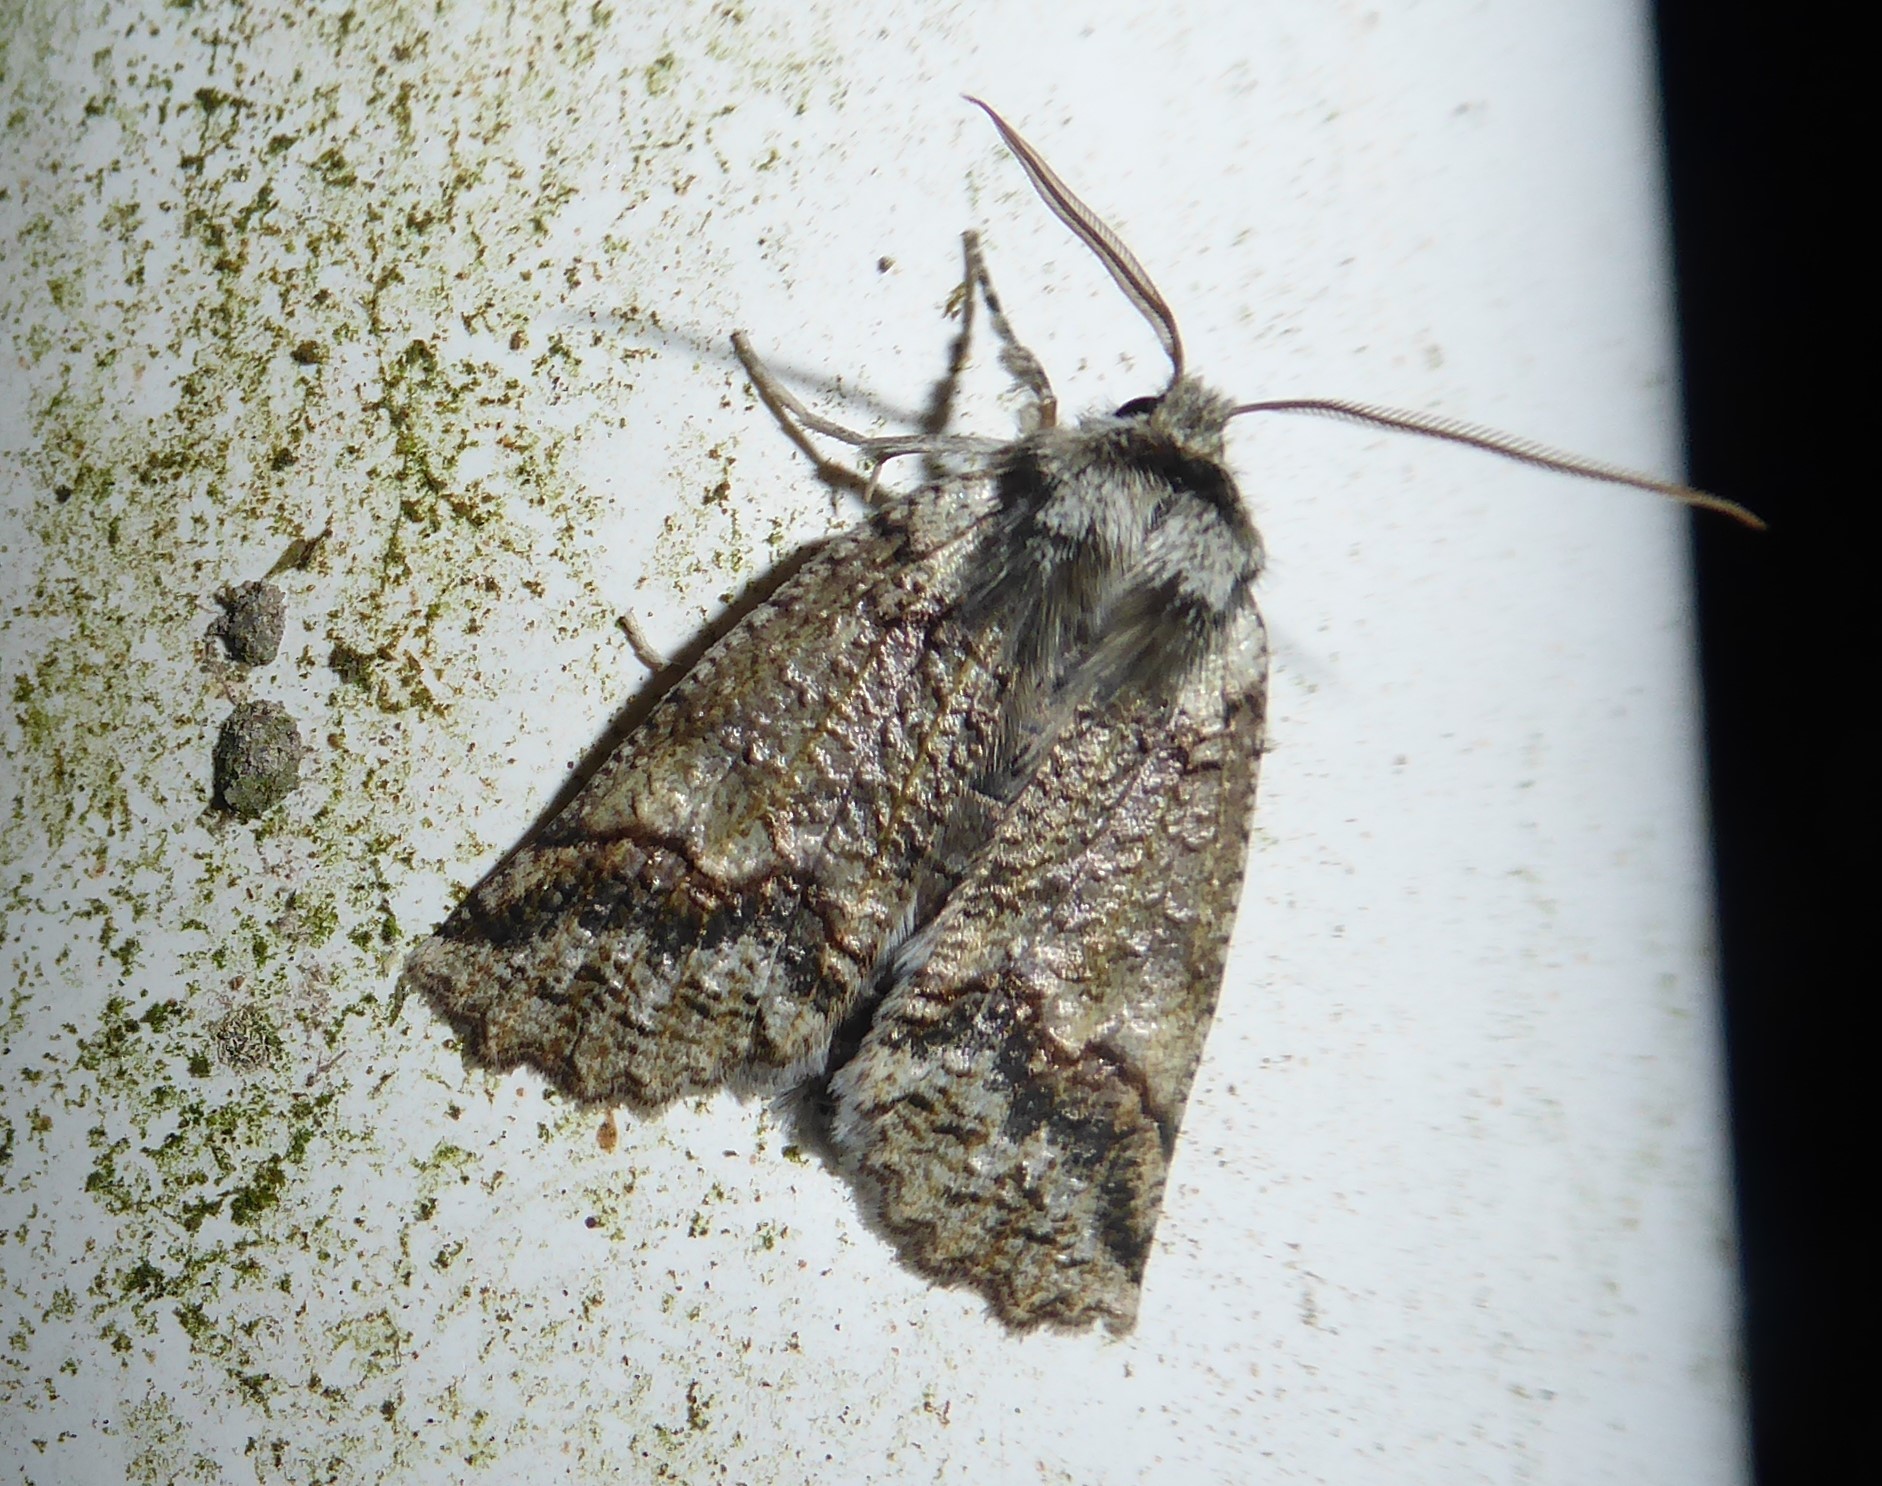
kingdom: Animalia
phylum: Arthropoda
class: Insecta
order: Lepidoptera
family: Geometridae
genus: Declana
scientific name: Declana floccosa
